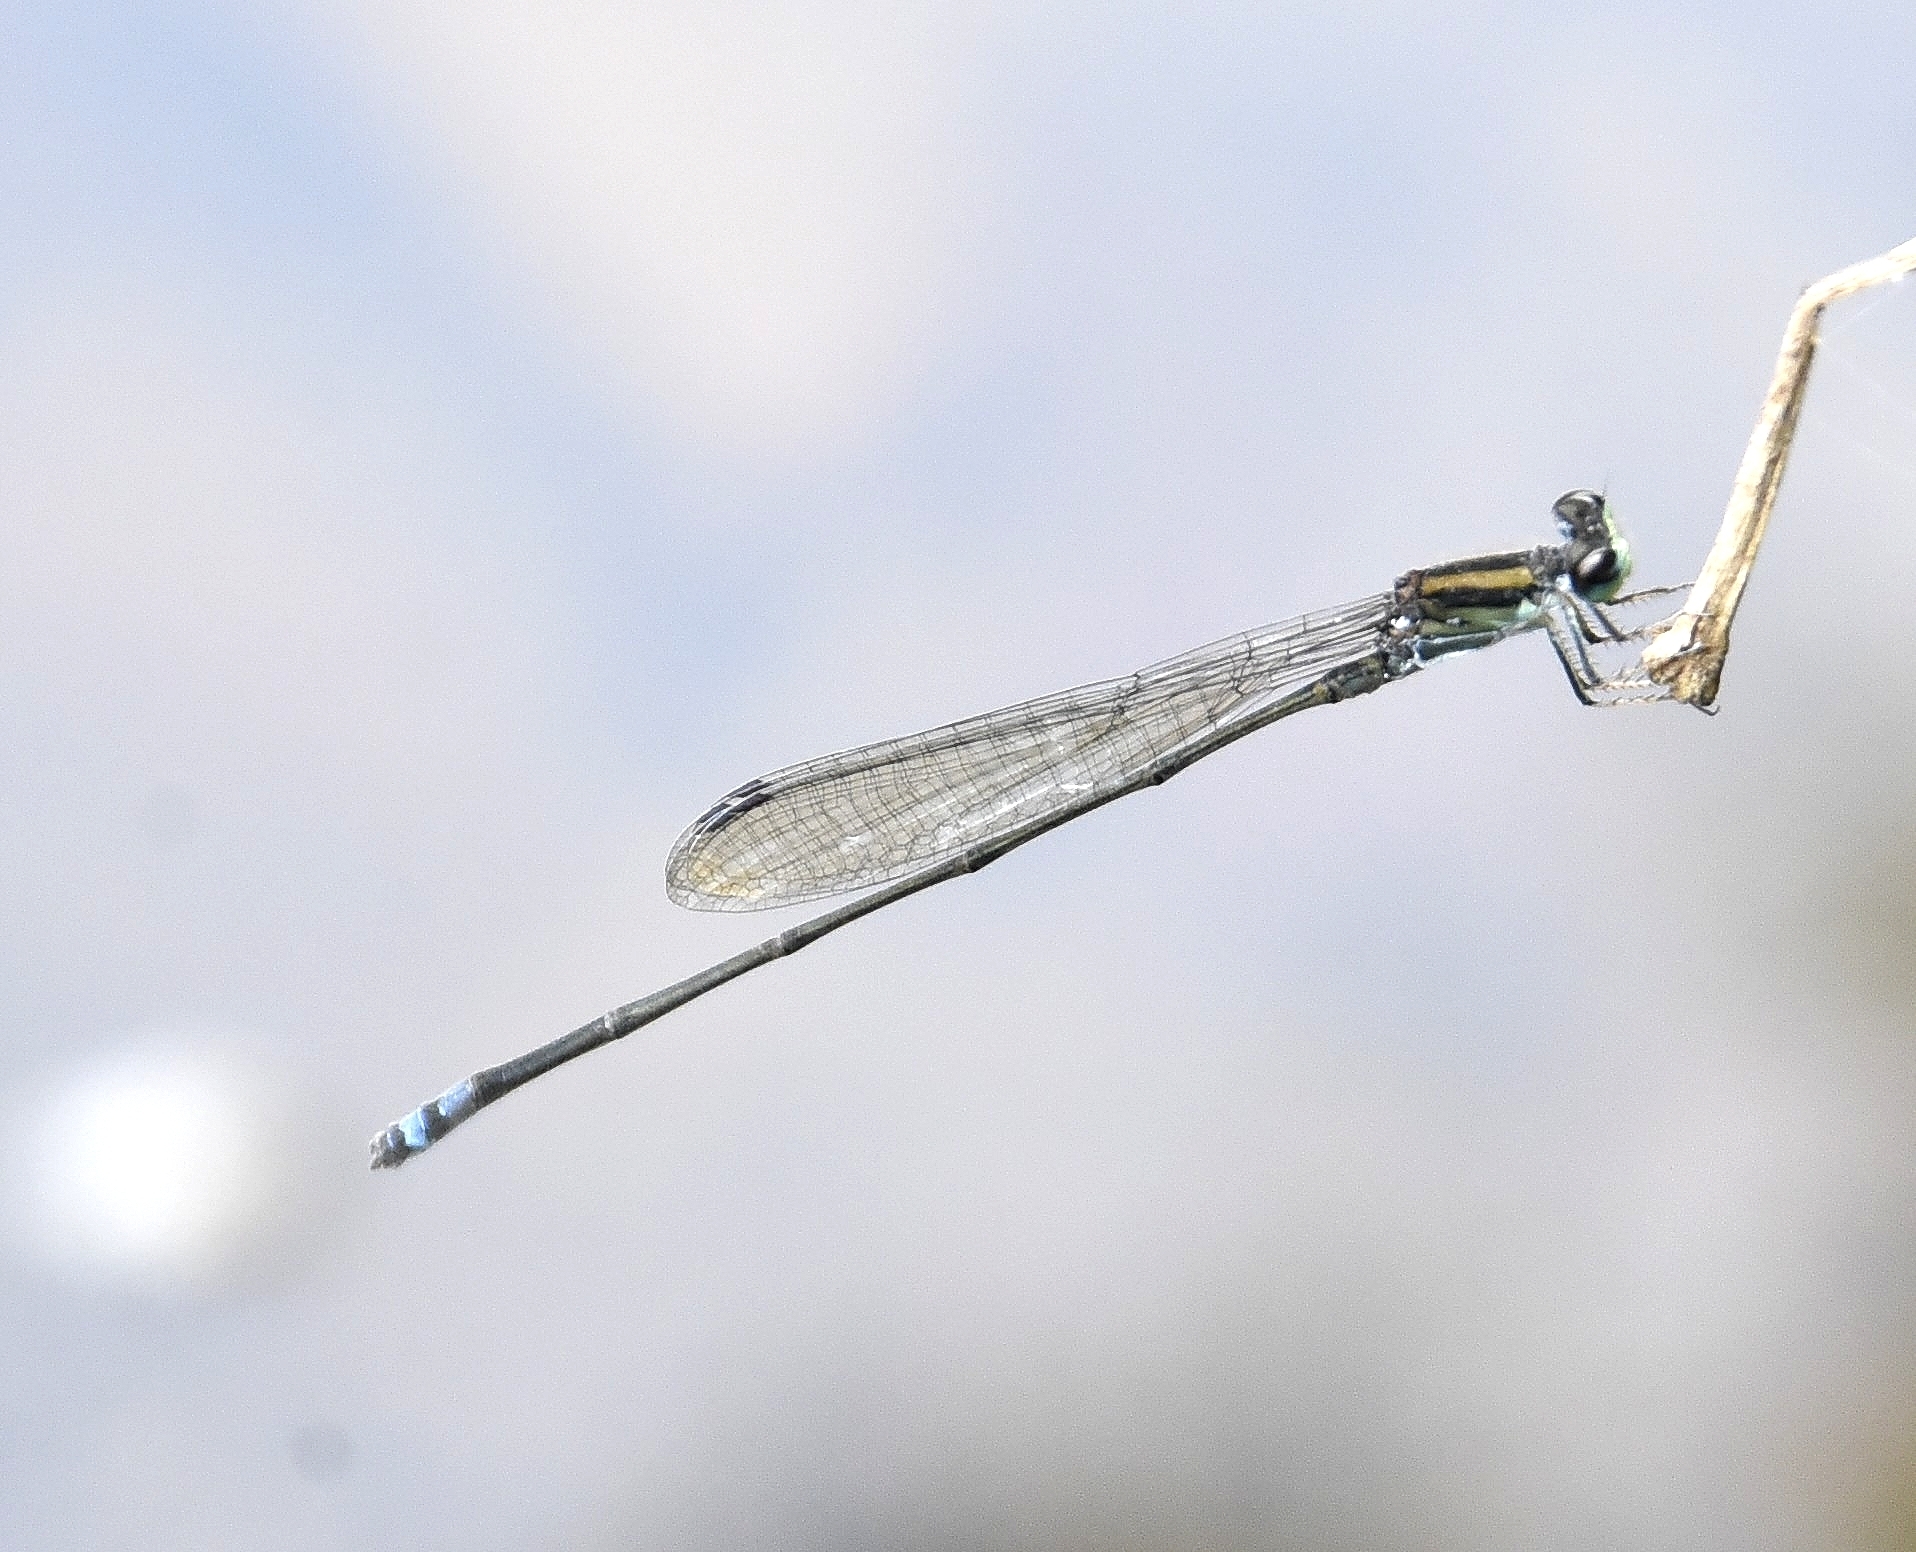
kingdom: Animalia
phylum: Arthropoda
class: Insecta
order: Odonata
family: Coenagrionidae
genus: Pseudagrion
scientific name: Pseudagrion indicum
